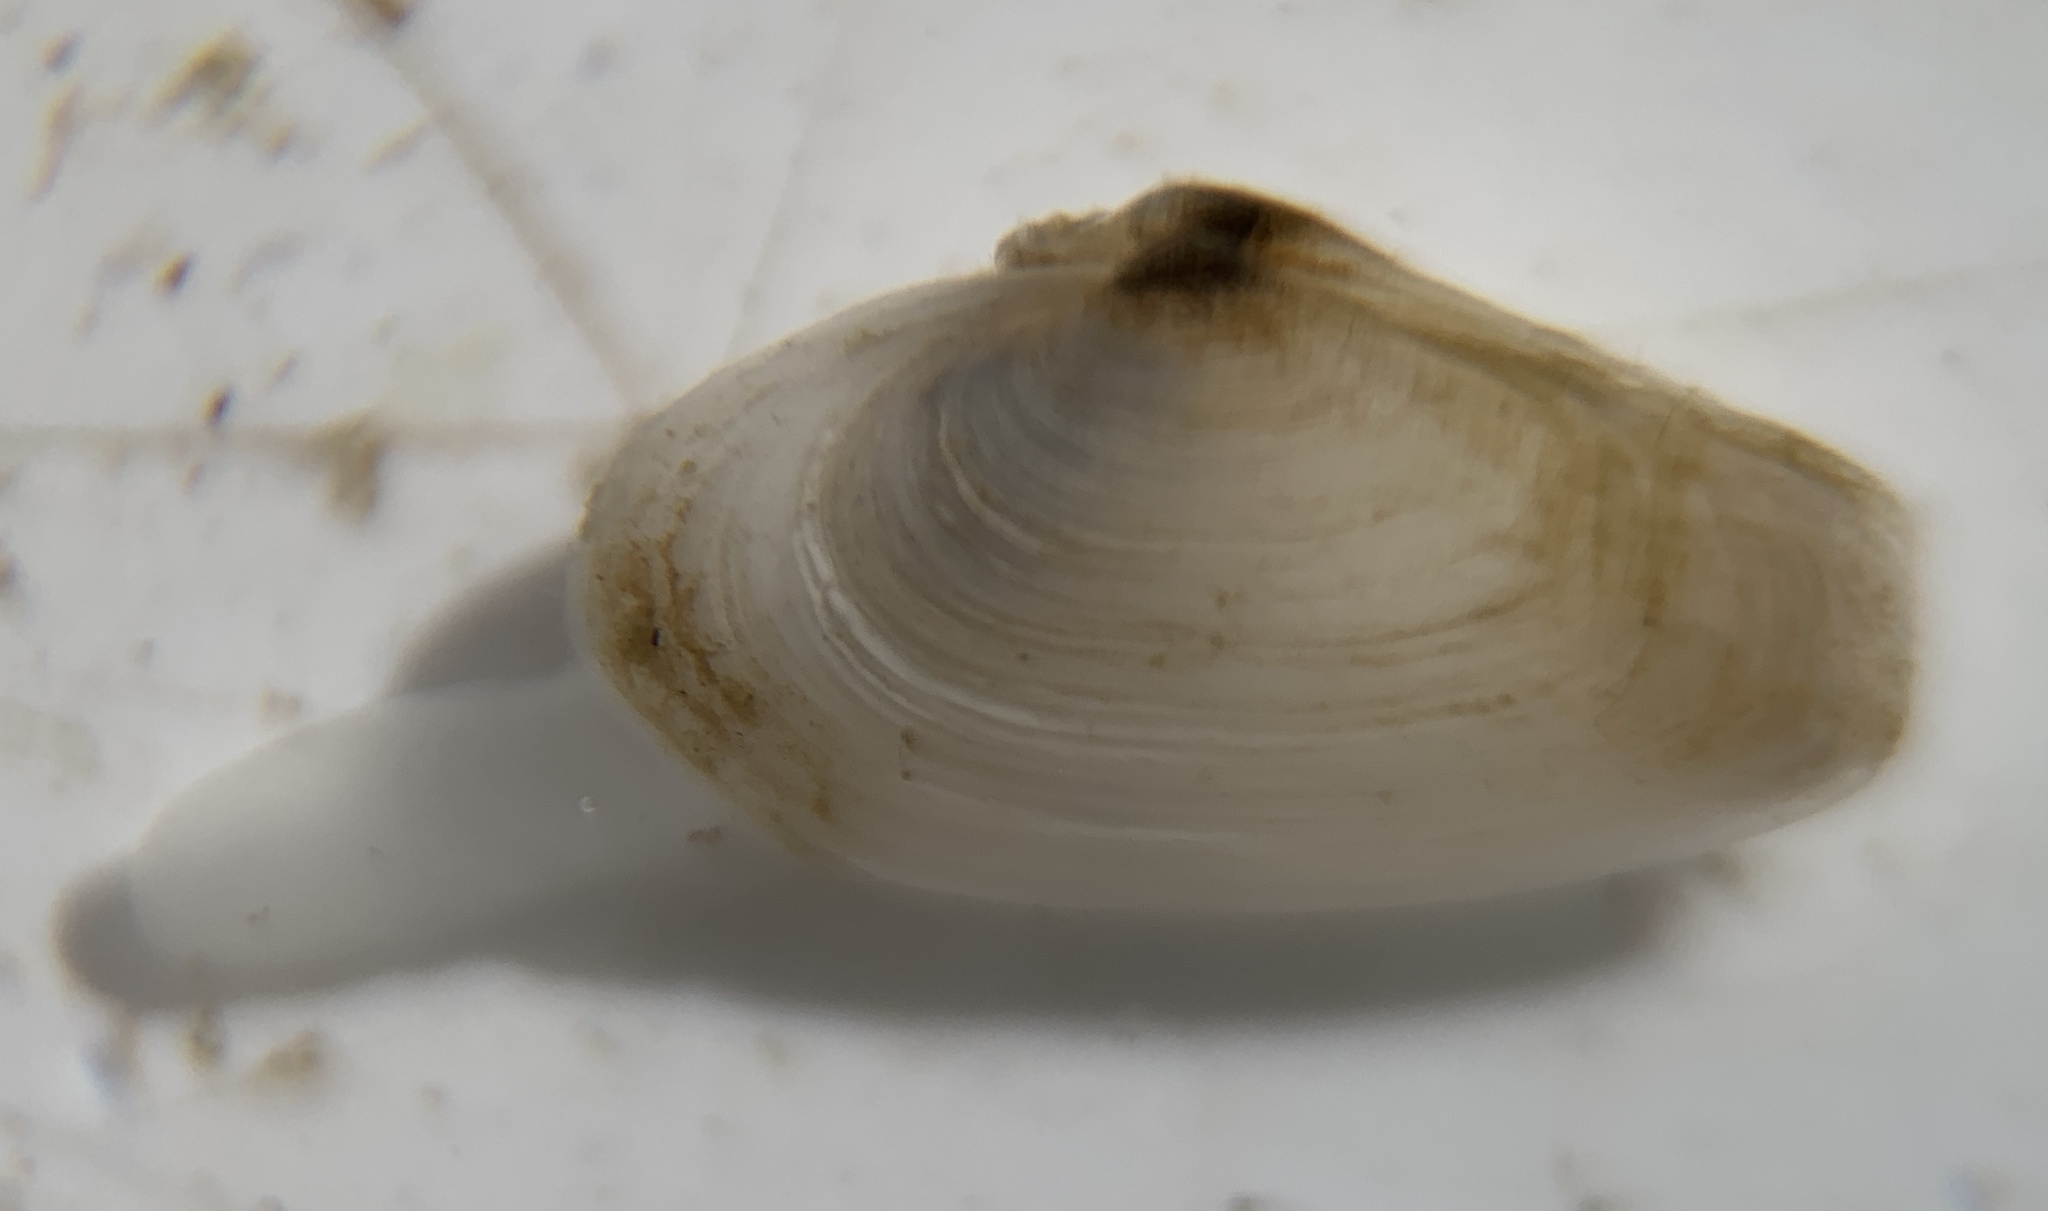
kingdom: Animalia
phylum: Mollusca
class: Bivalvia
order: Myida
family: Myidae
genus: Mya
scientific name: Mya arenaria
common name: Soft-shelled clam
